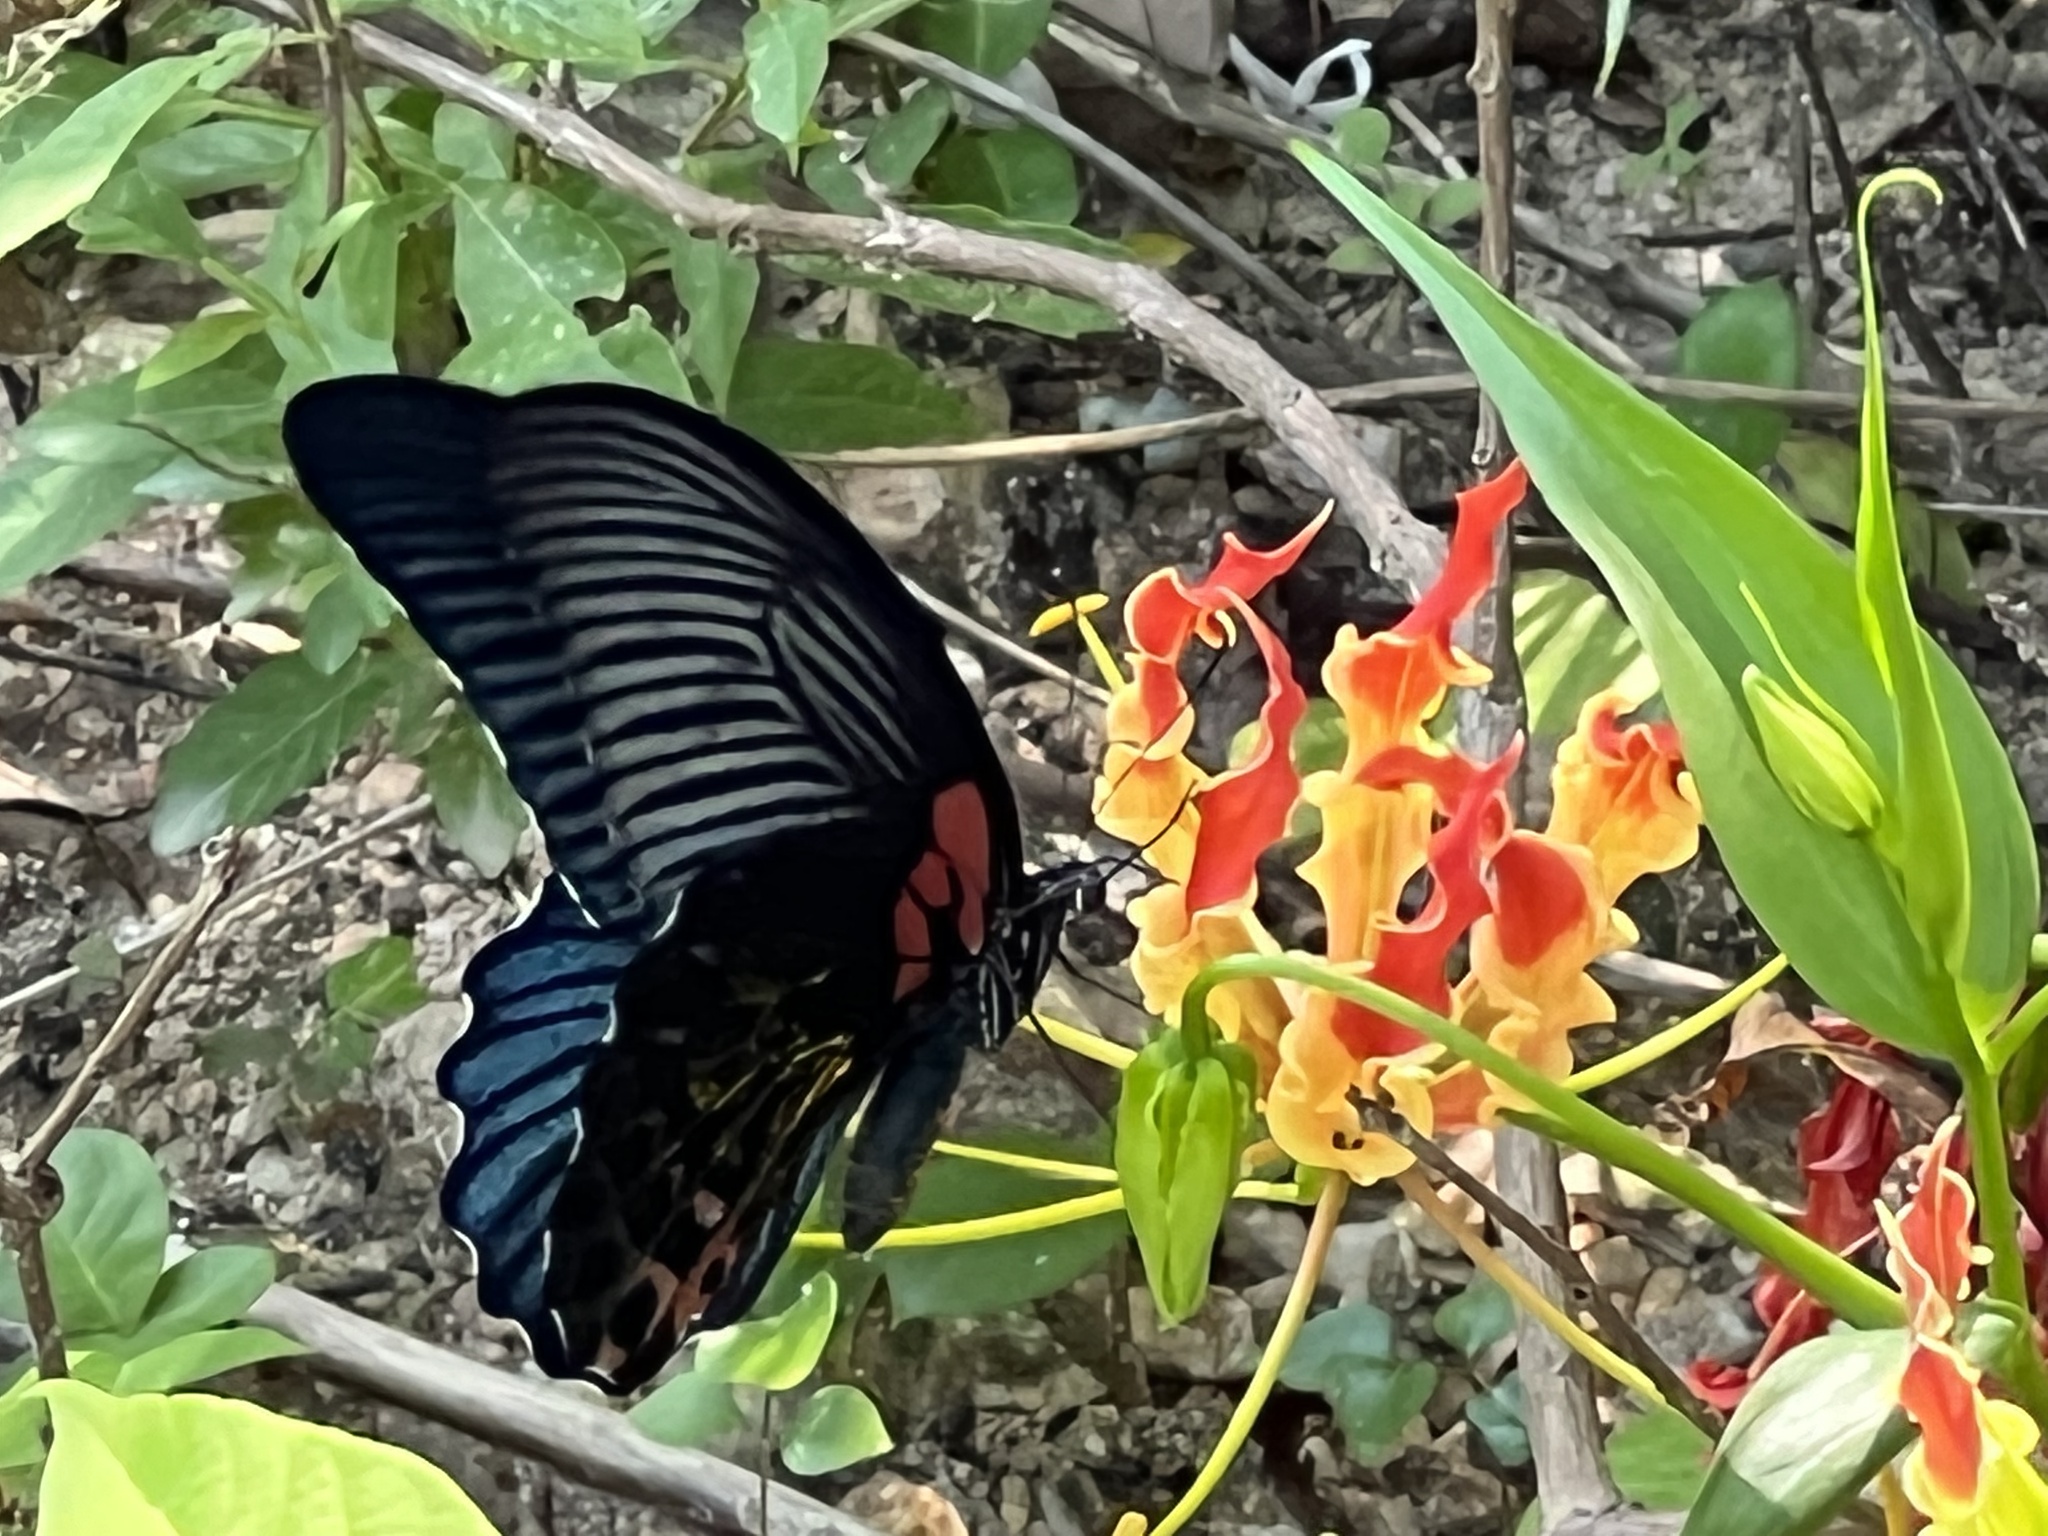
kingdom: Animalia
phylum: Arthropoda
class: Insecta
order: Lepidoptera
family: Papilionidae
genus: Papilio
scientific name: Papilio memnon
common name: Great mormon
